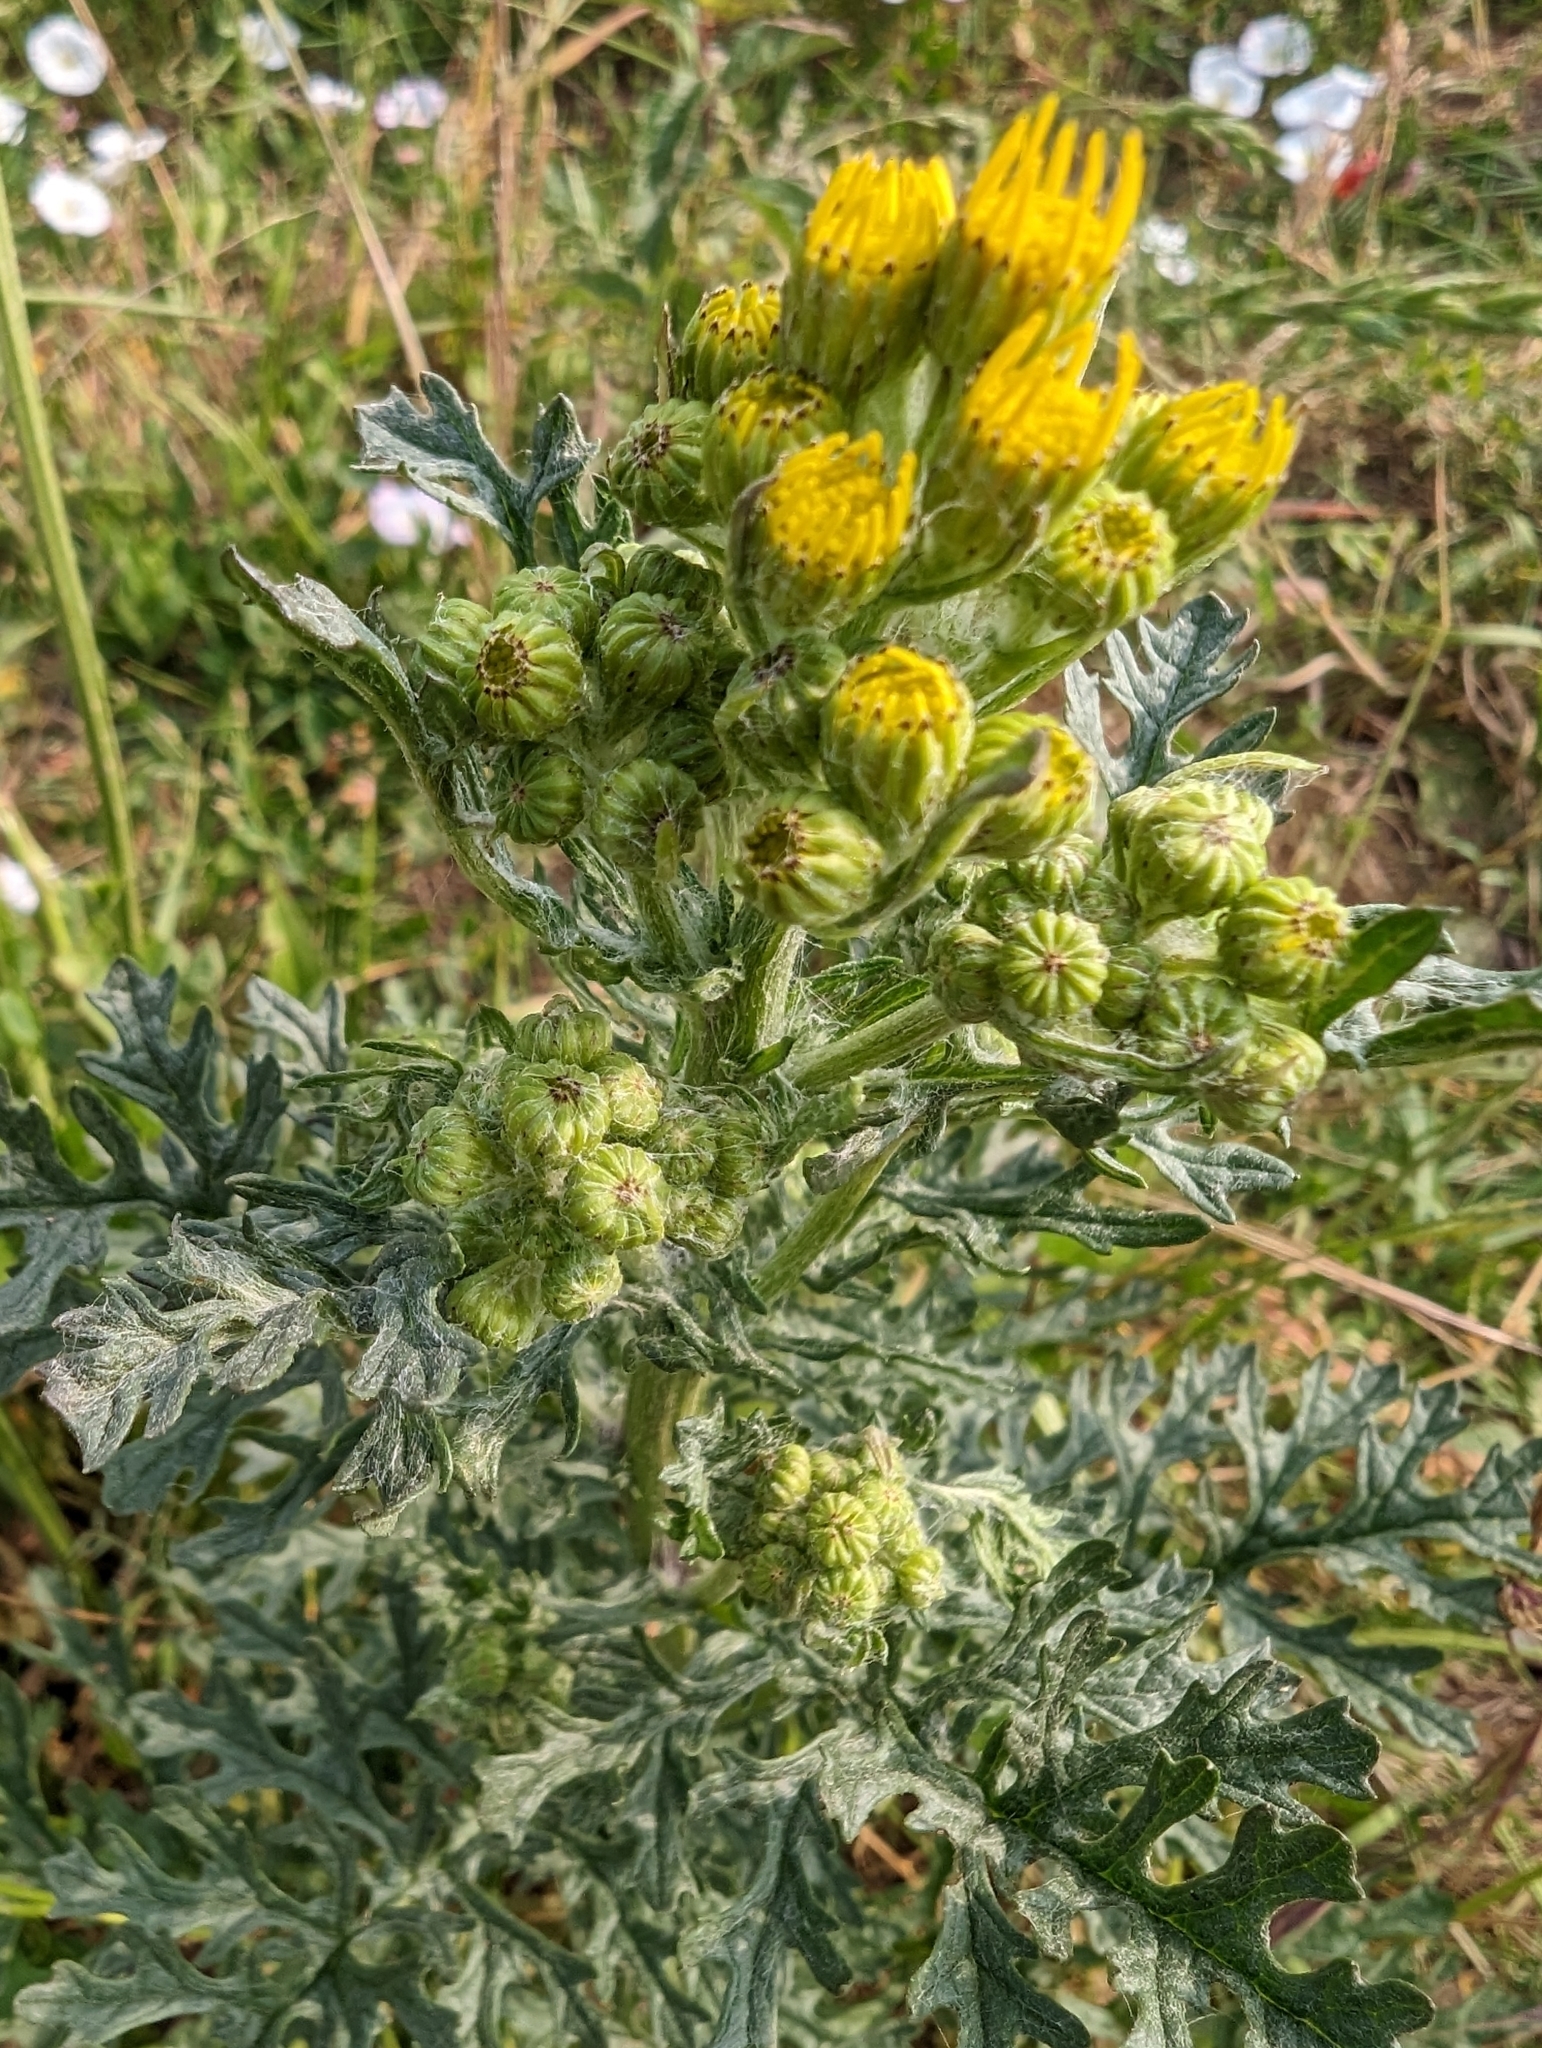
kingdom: Plantae
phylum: Tracheophyta
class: Magnoliopsida
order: Asterales
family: Asteraceae
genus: Jacobaea
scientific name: Jacobaea vulgaris
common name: Stinking willie
